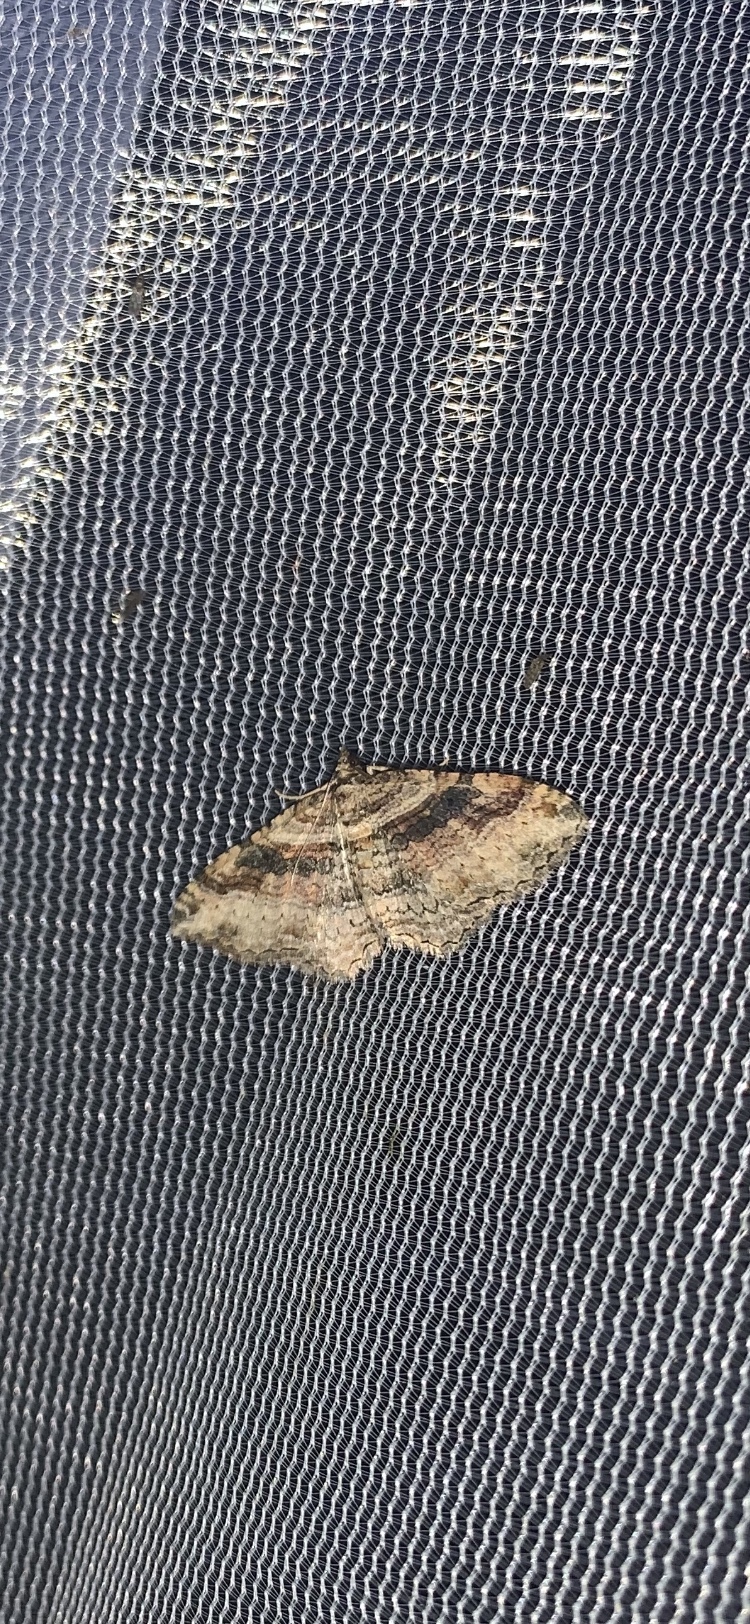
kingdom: Animalia
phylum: Arthropoda
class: Insecta
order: Lepidoptera
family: Geometridae
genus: Costaconvexa
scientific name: Costaconvexa centrostrigaria
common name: Bent-line carpet
